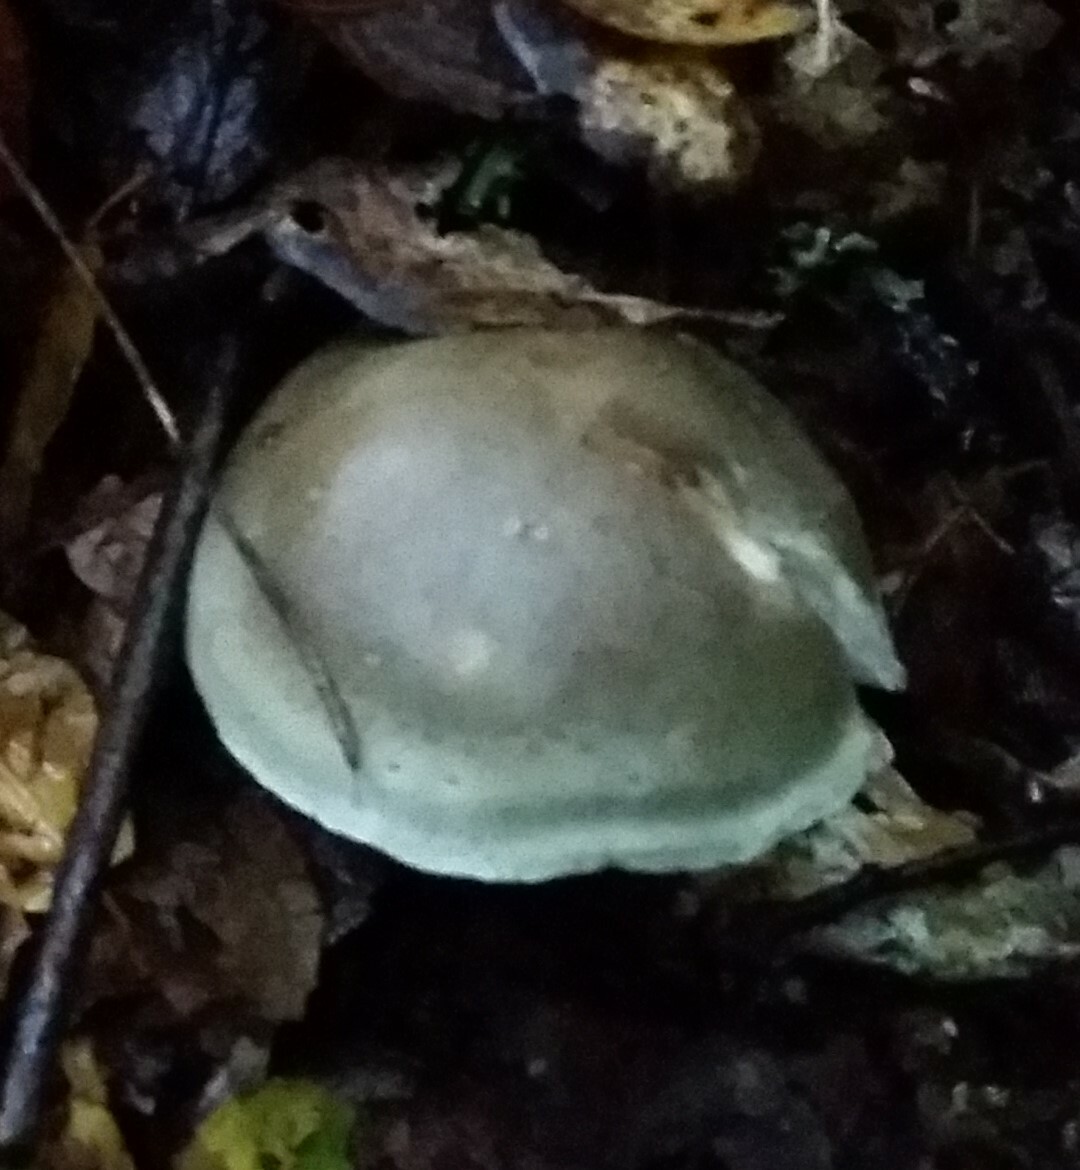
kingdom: Fungi
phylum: Basidiomycota
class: Agaricomycetes
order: Agaricales
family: Tricholomataceae
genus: Tricholoma
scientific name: Tricholoma saponaceum
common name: Soapy trich
